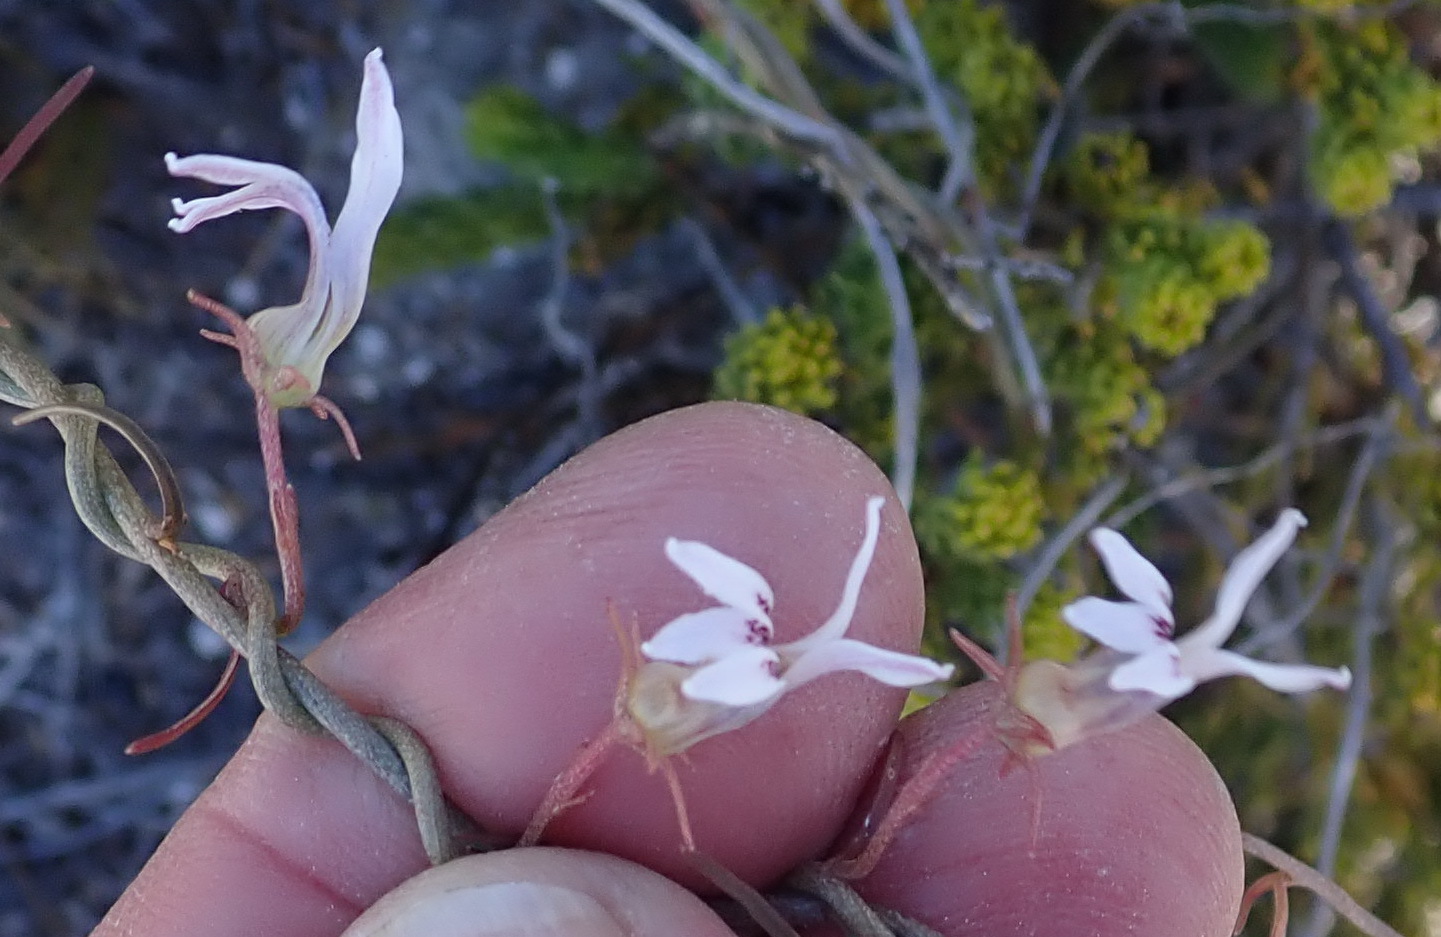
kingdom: Plantae
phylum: Tracheophyta
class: Magnoliopsida
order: Asterales
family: Campanulaceae
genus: Cyphia
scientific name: Cyphia sylvatica
